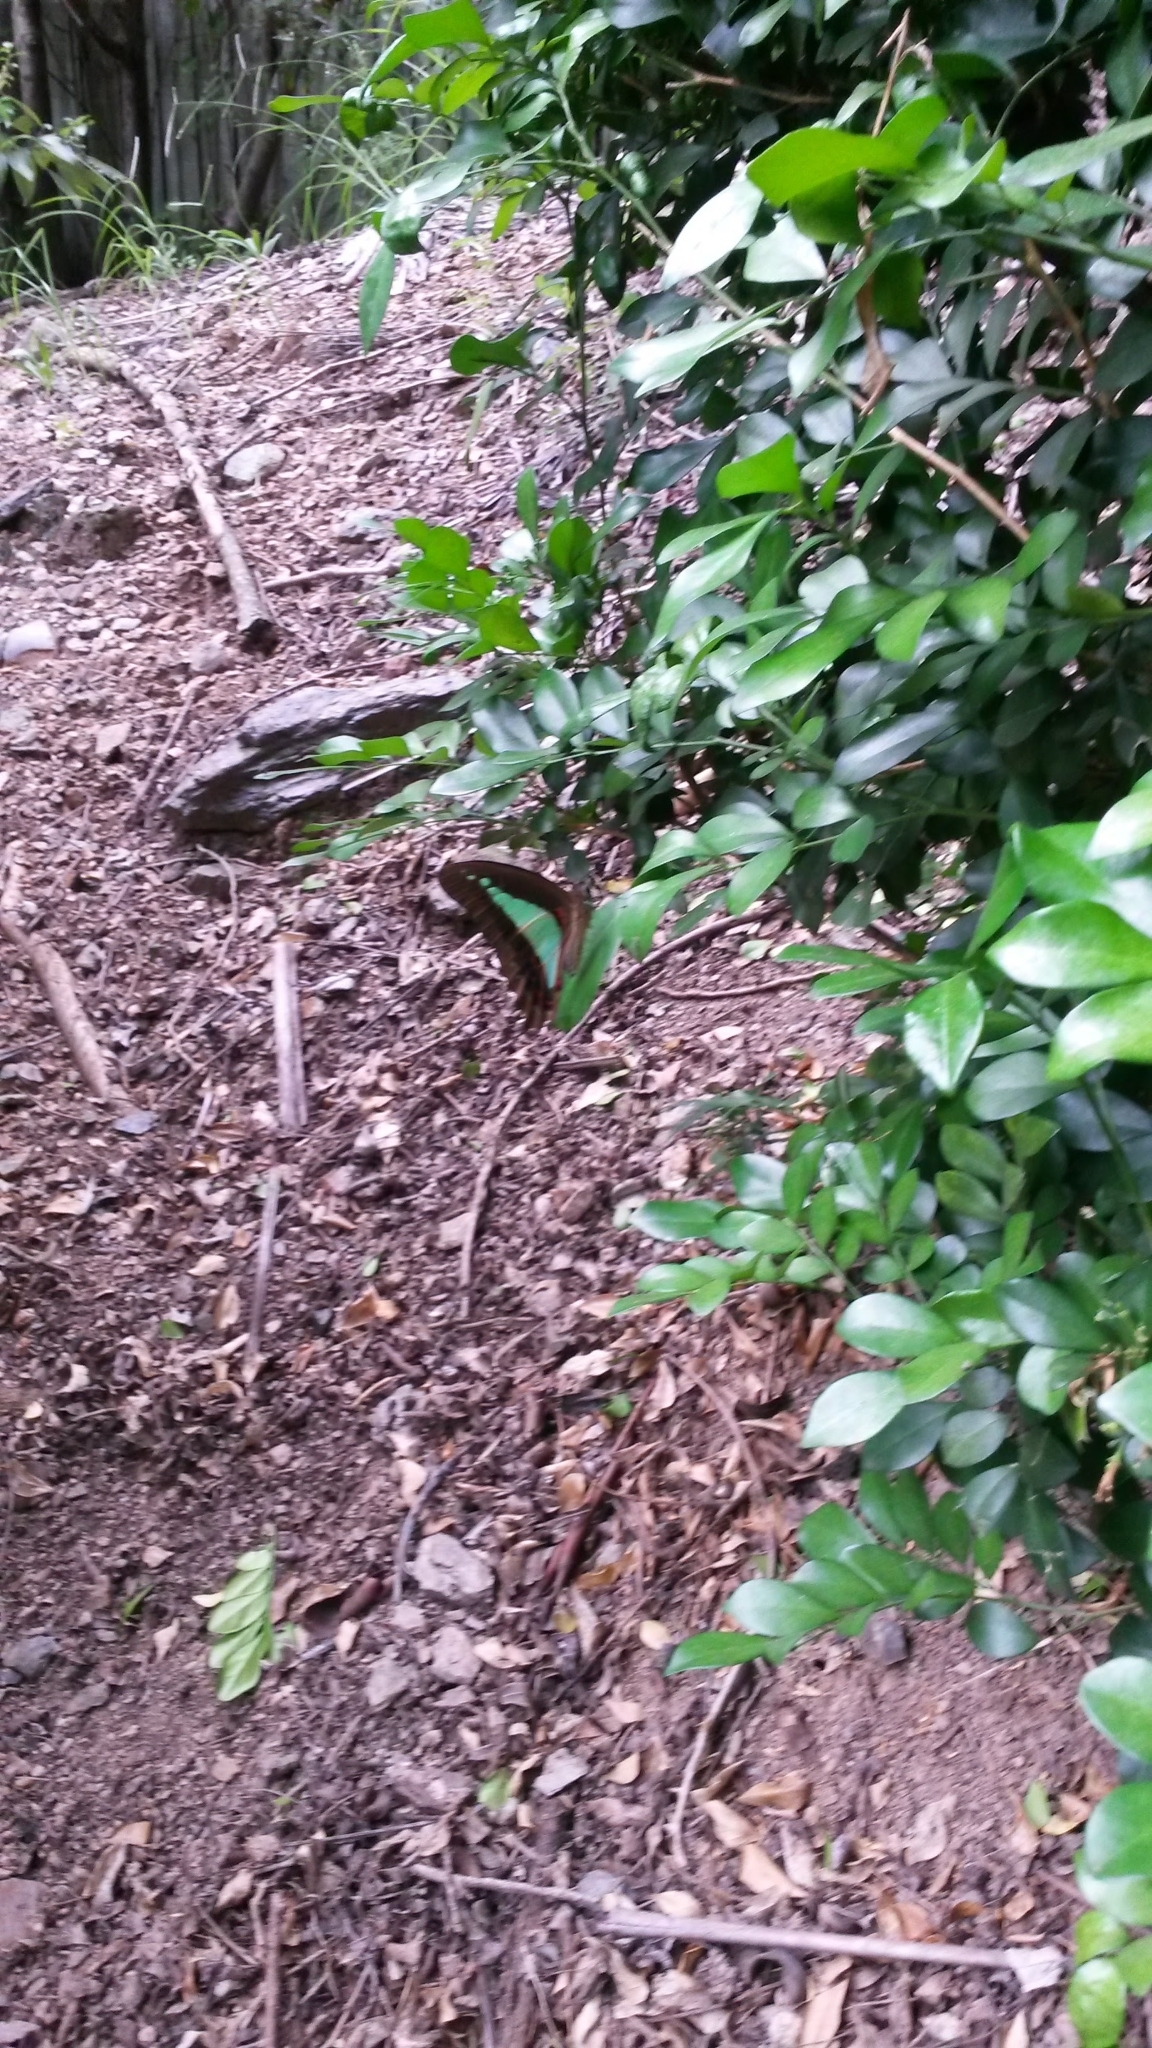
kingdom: Animalia
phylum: Arthropoda
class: Insecta
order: Lepidoptera
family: Papilionidae
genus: Graphium
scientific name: Graphium
